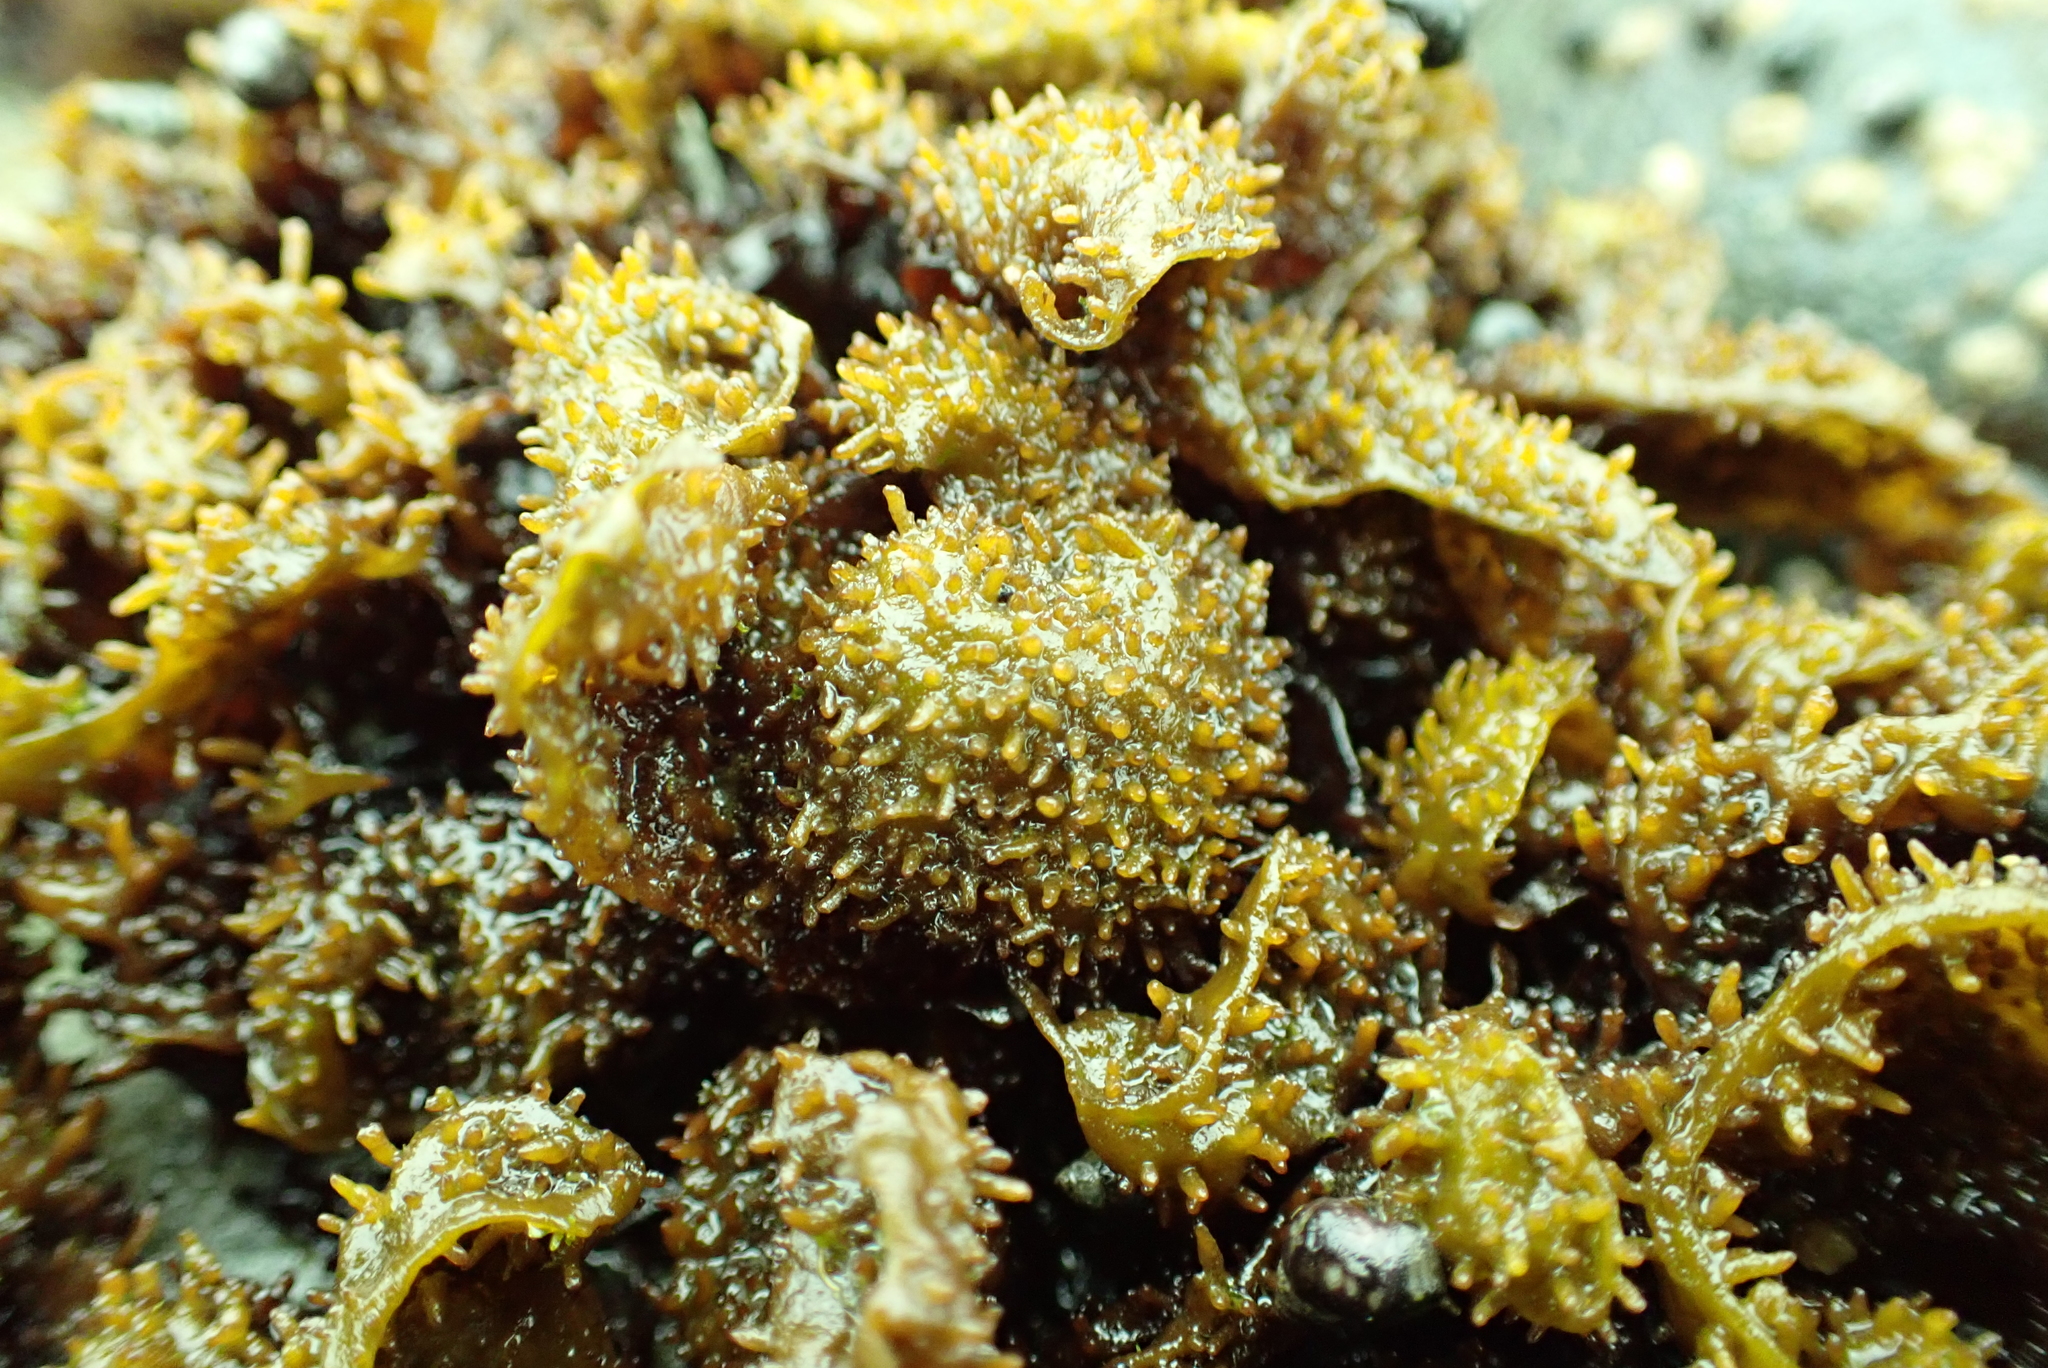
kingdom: Plantae
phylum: Rhodophyta
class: Florideophyceae
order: Gigartinales
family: Phyllophoraceae
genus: Mastocarpus
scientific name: Mastocarpus papillatus
